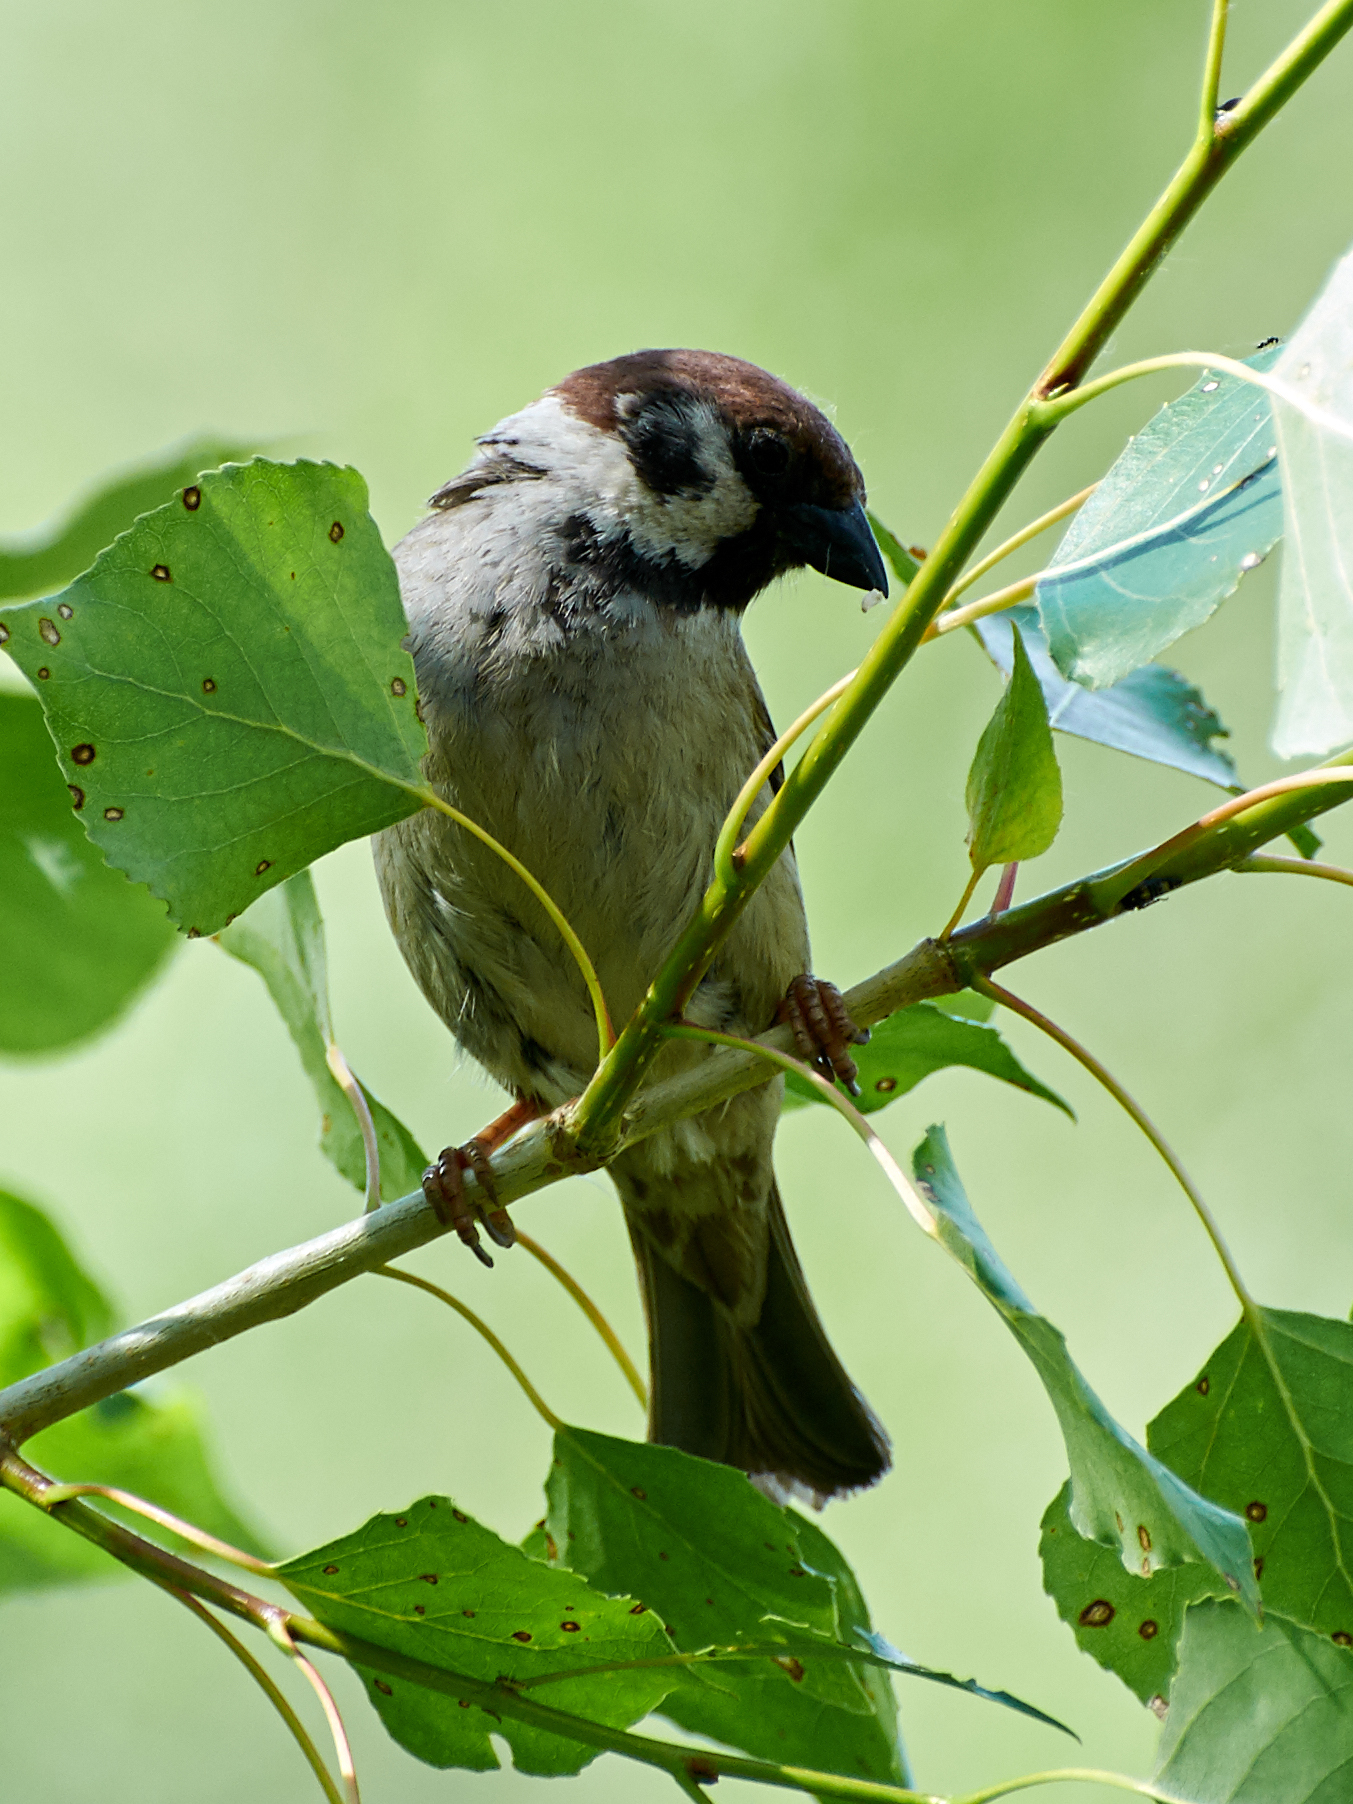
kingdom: Animalia
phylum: Chordata
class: Aves
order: Passeriformes
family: Passeridae
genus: Passer
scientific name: Passer montanus
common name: Eurasian tree sparrow
